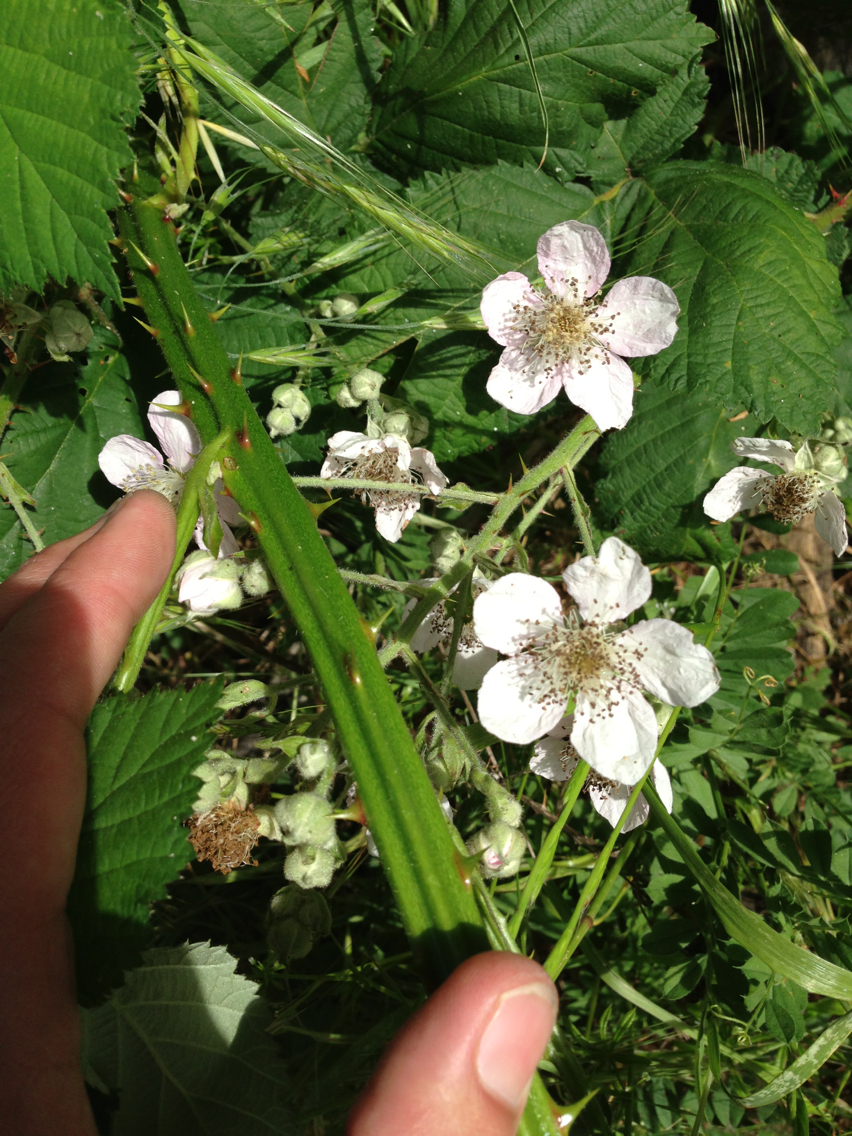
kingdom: Plantae
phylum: Tracheophyta
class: Magnoliopsida
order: Rosales
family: Rosaceae
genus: Rubus
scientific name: Rubus armeniacus
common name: Himalayan blackberry
